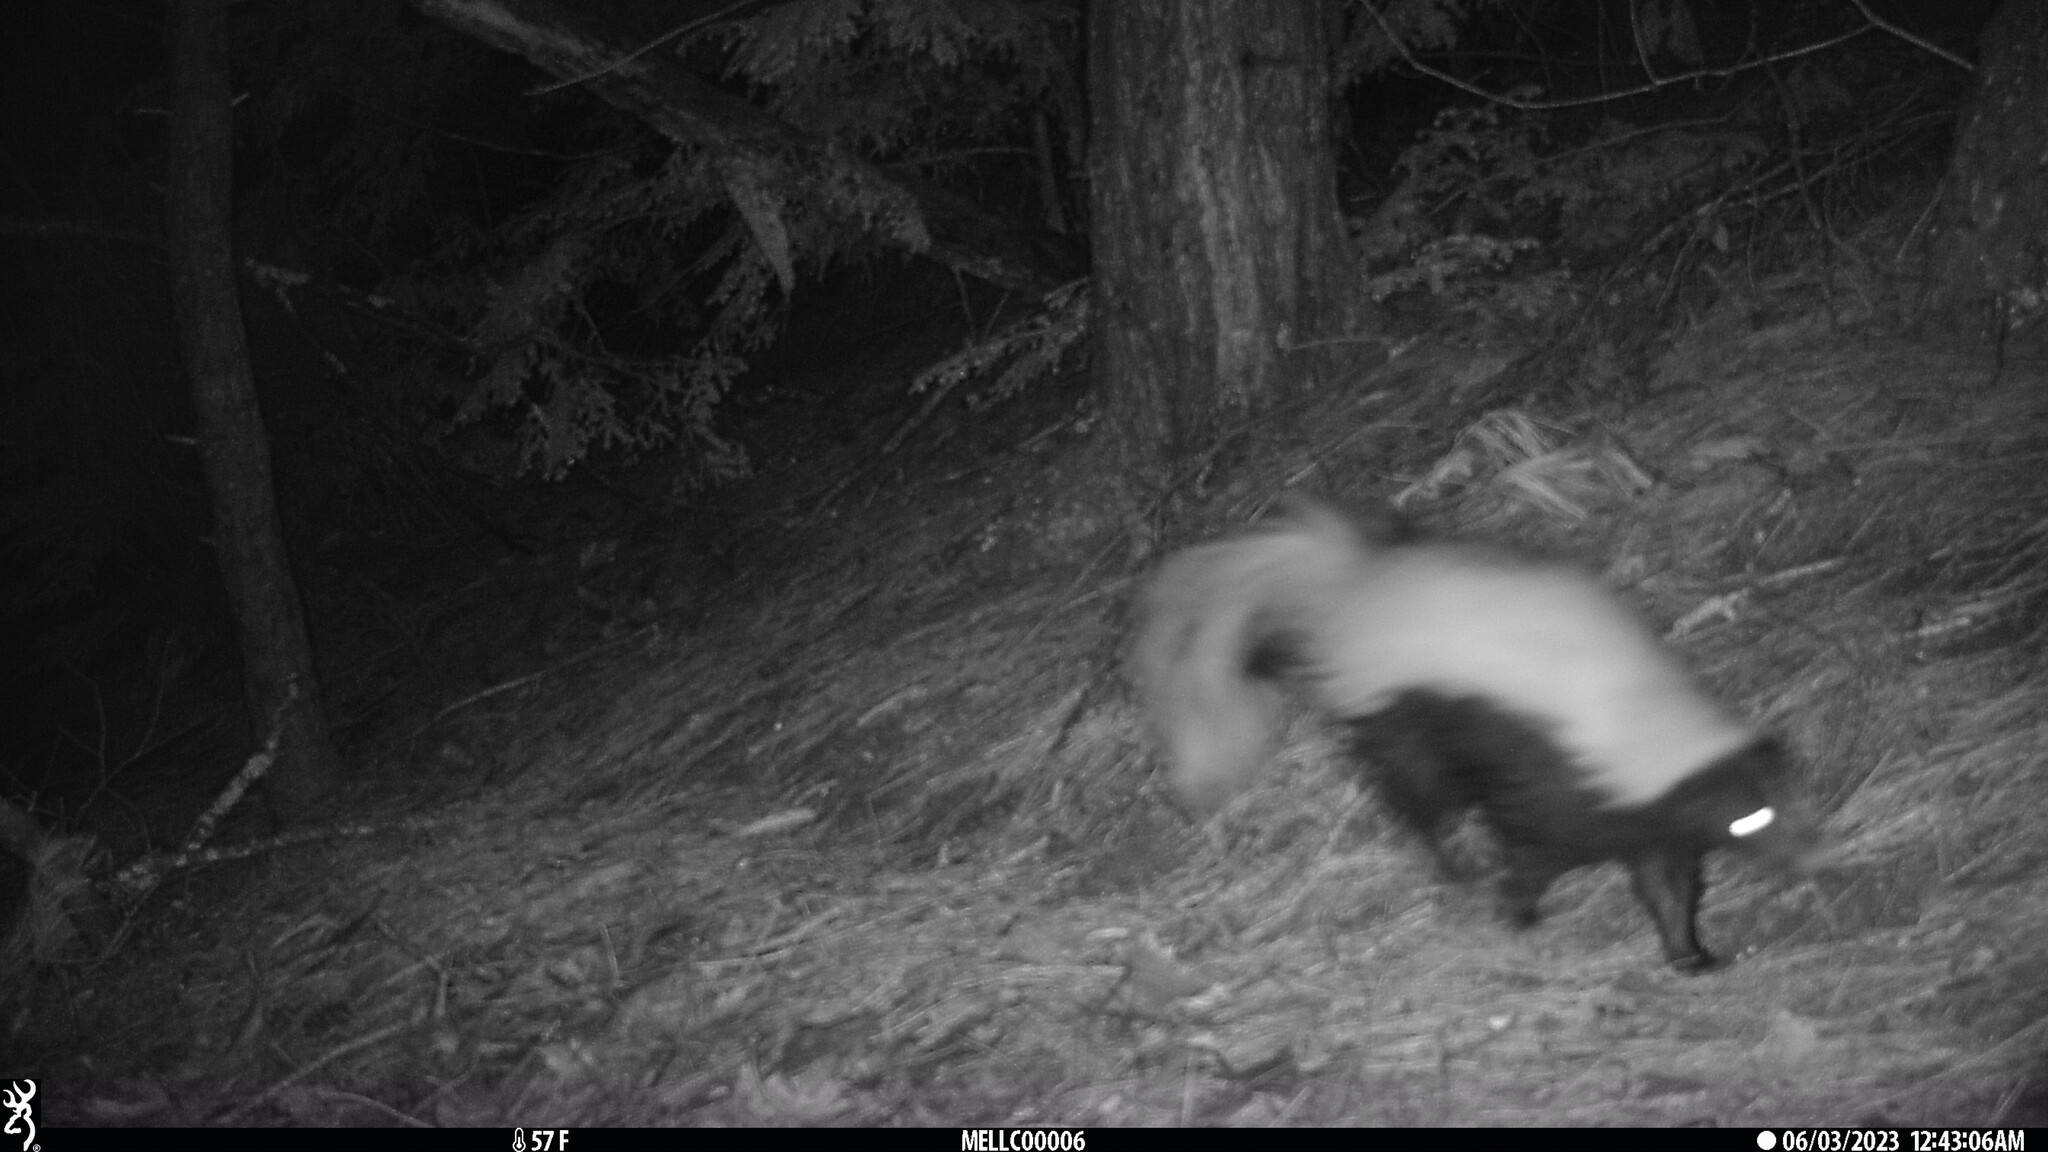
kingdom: Animalia
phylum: Chordata
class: Mammalia
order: Carnivora
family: Mephitidae
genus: Mephitis
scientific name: Mephitis mephitis
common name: Striped skunk
